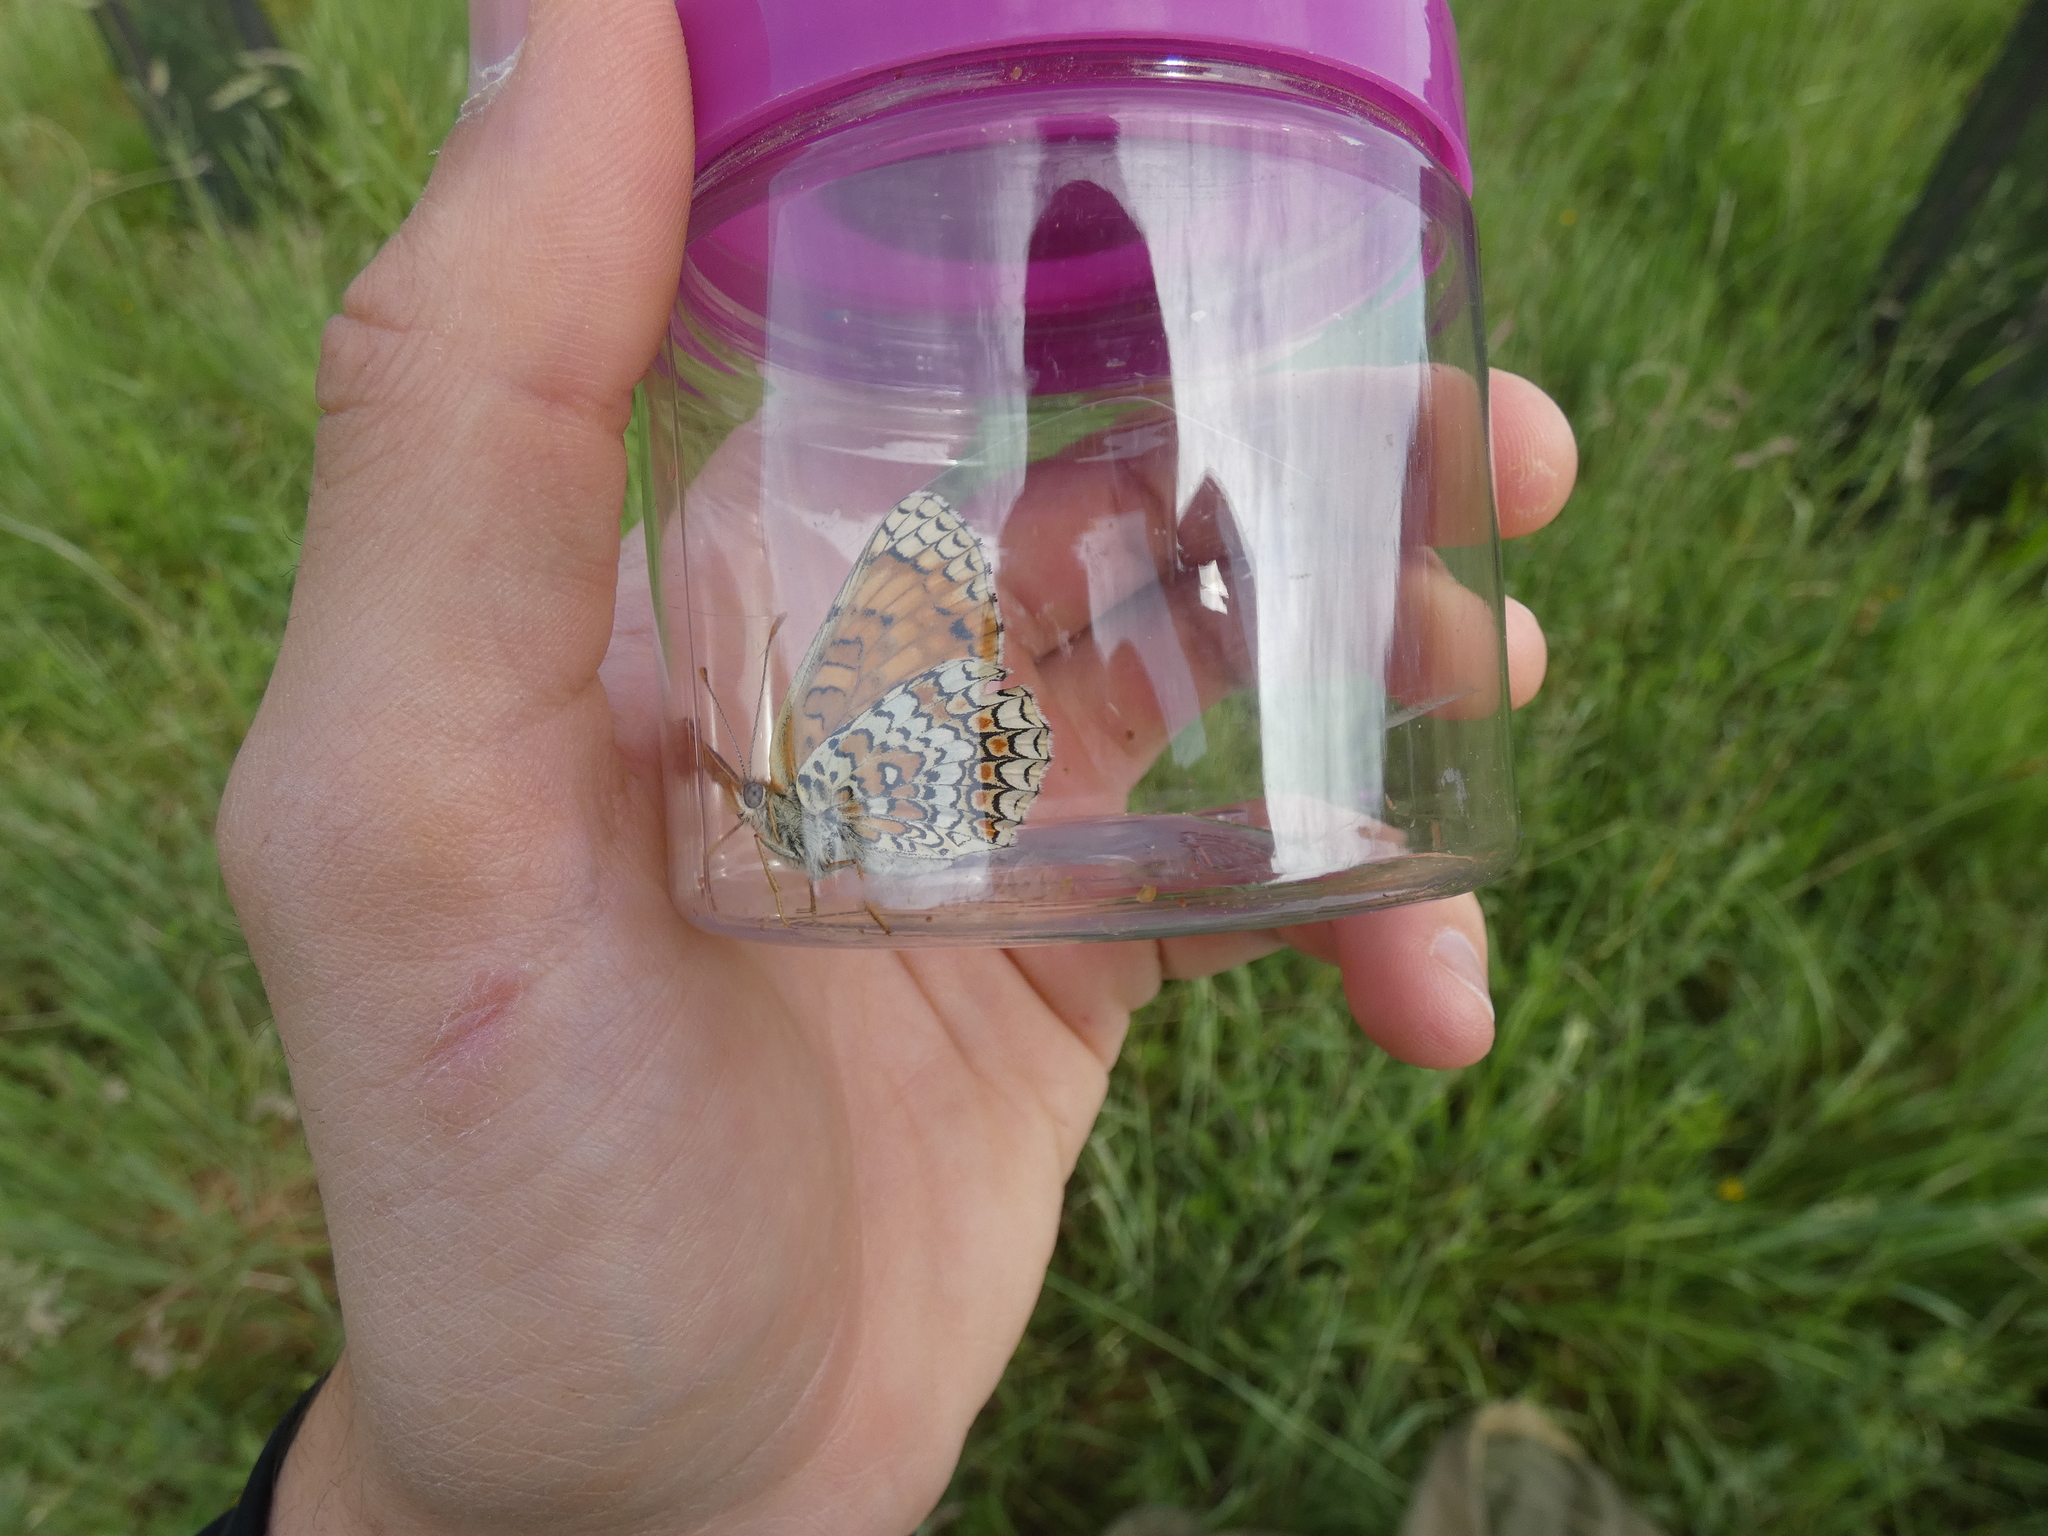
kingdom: Animalia
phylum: Arthropoda
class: Insecta
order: Lepidoptera
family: Nymphalidae
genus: Melitaea
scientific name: Melitaea phoebe
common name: Knapweed fritillary
